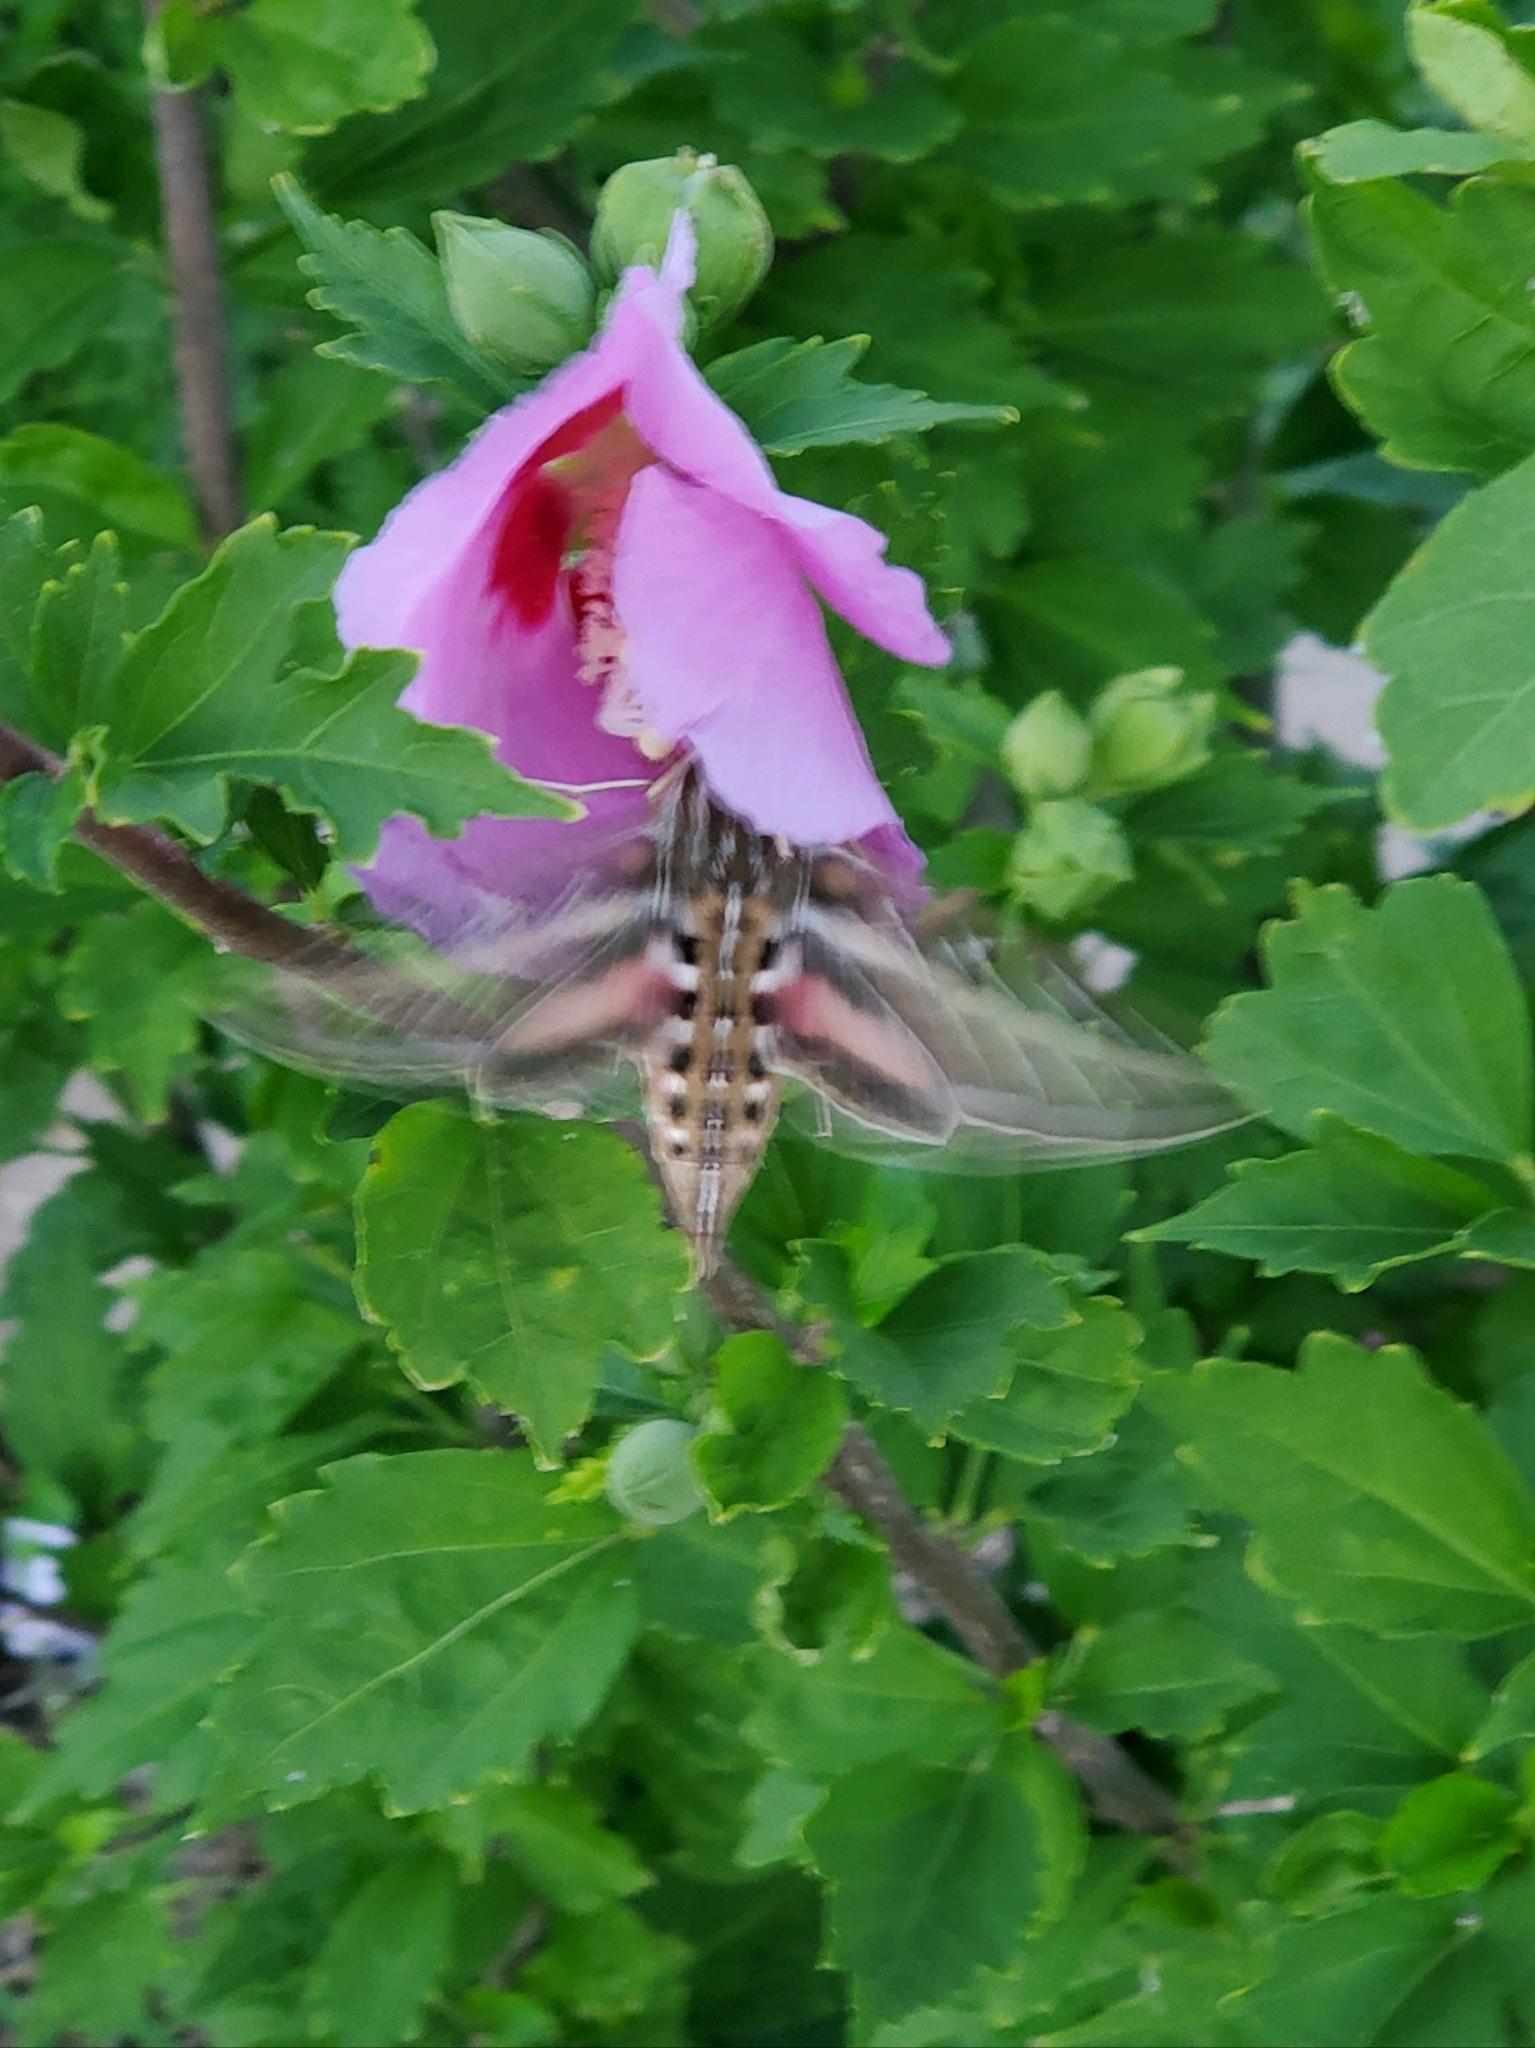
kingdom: Animalia
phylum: Arthropoda
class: Insecta
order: Lepidoptera
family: Sphingidae
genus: Hyles
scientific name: Hyles lineata
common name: White-lined sphinx
